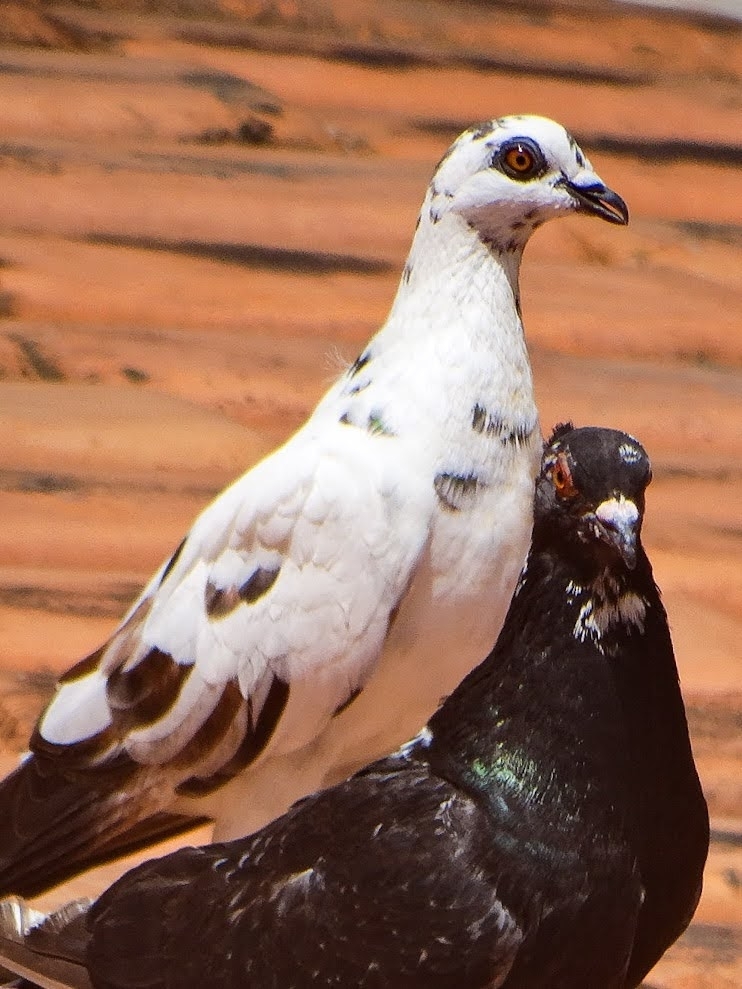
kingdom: Animalia
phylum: Chordata
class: Aves
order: Columbiformes
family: Columbidae
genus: Columba
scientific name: Columba livia
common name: Rock pigeon
